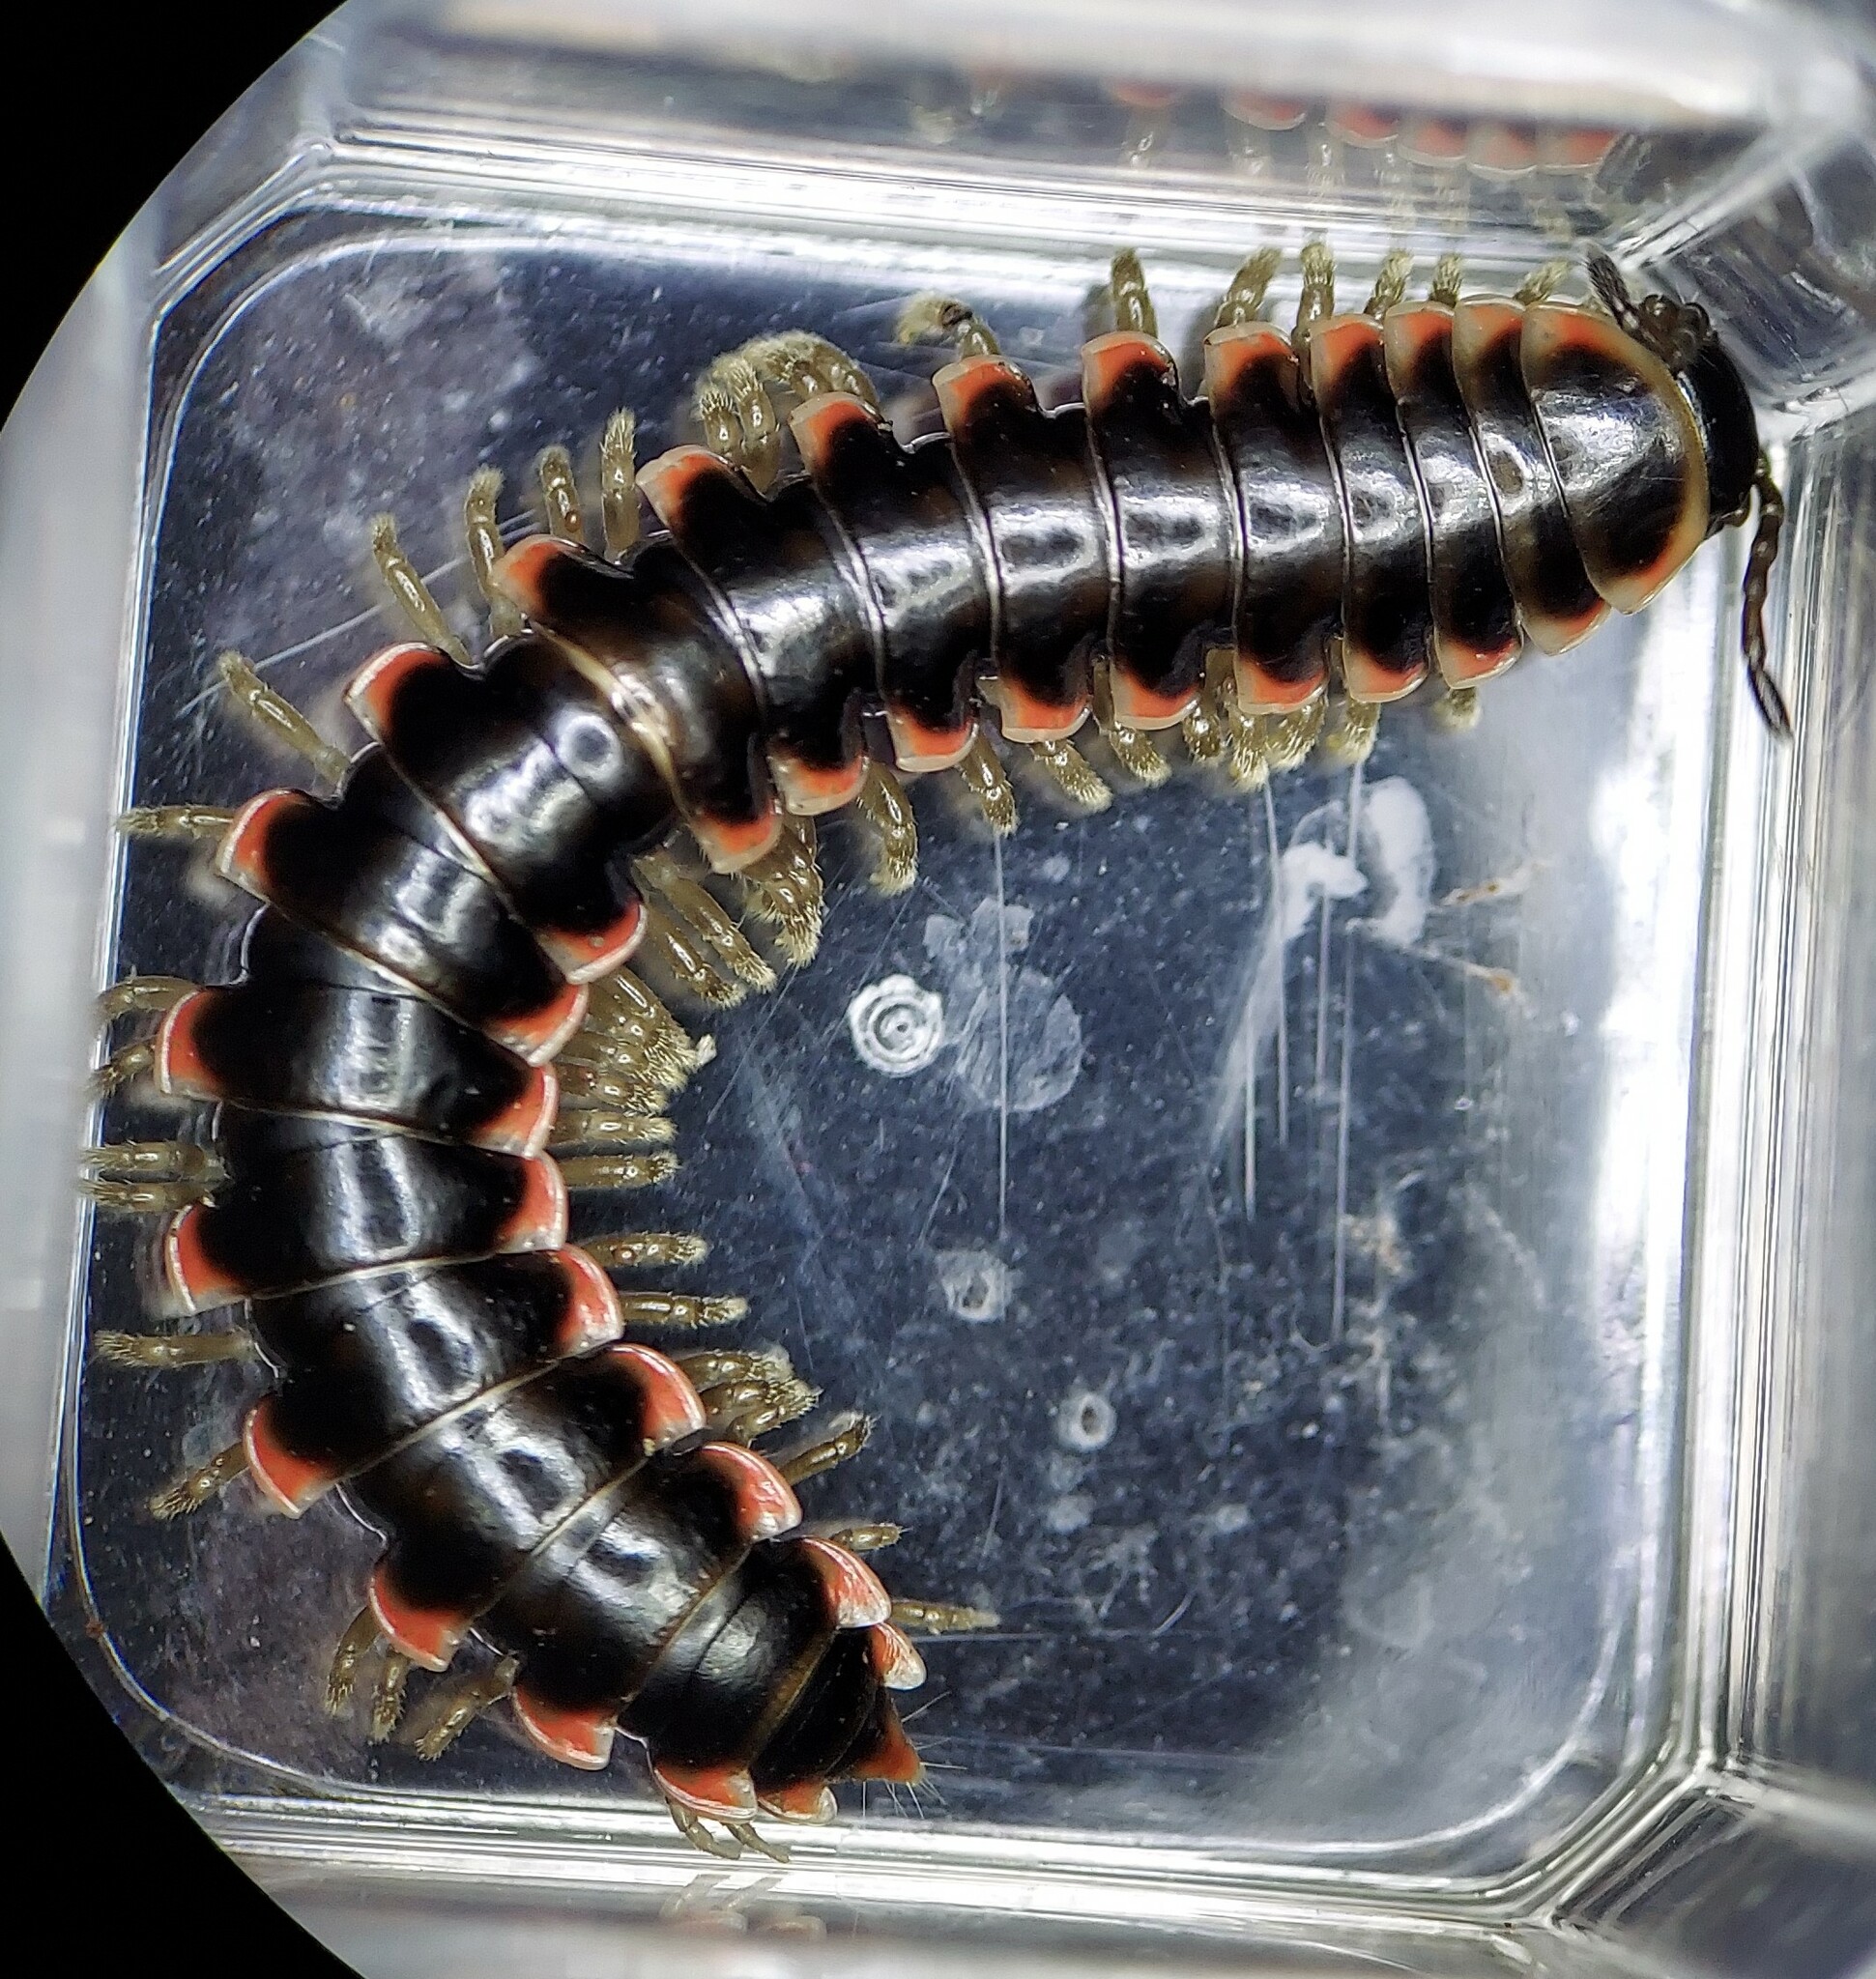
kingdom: Animalia
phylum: Arthropoda
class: Diplopoda
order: Polydesmida
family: Xystodesmidae
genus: Nannaria
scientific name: Nannaria ambulatrix
